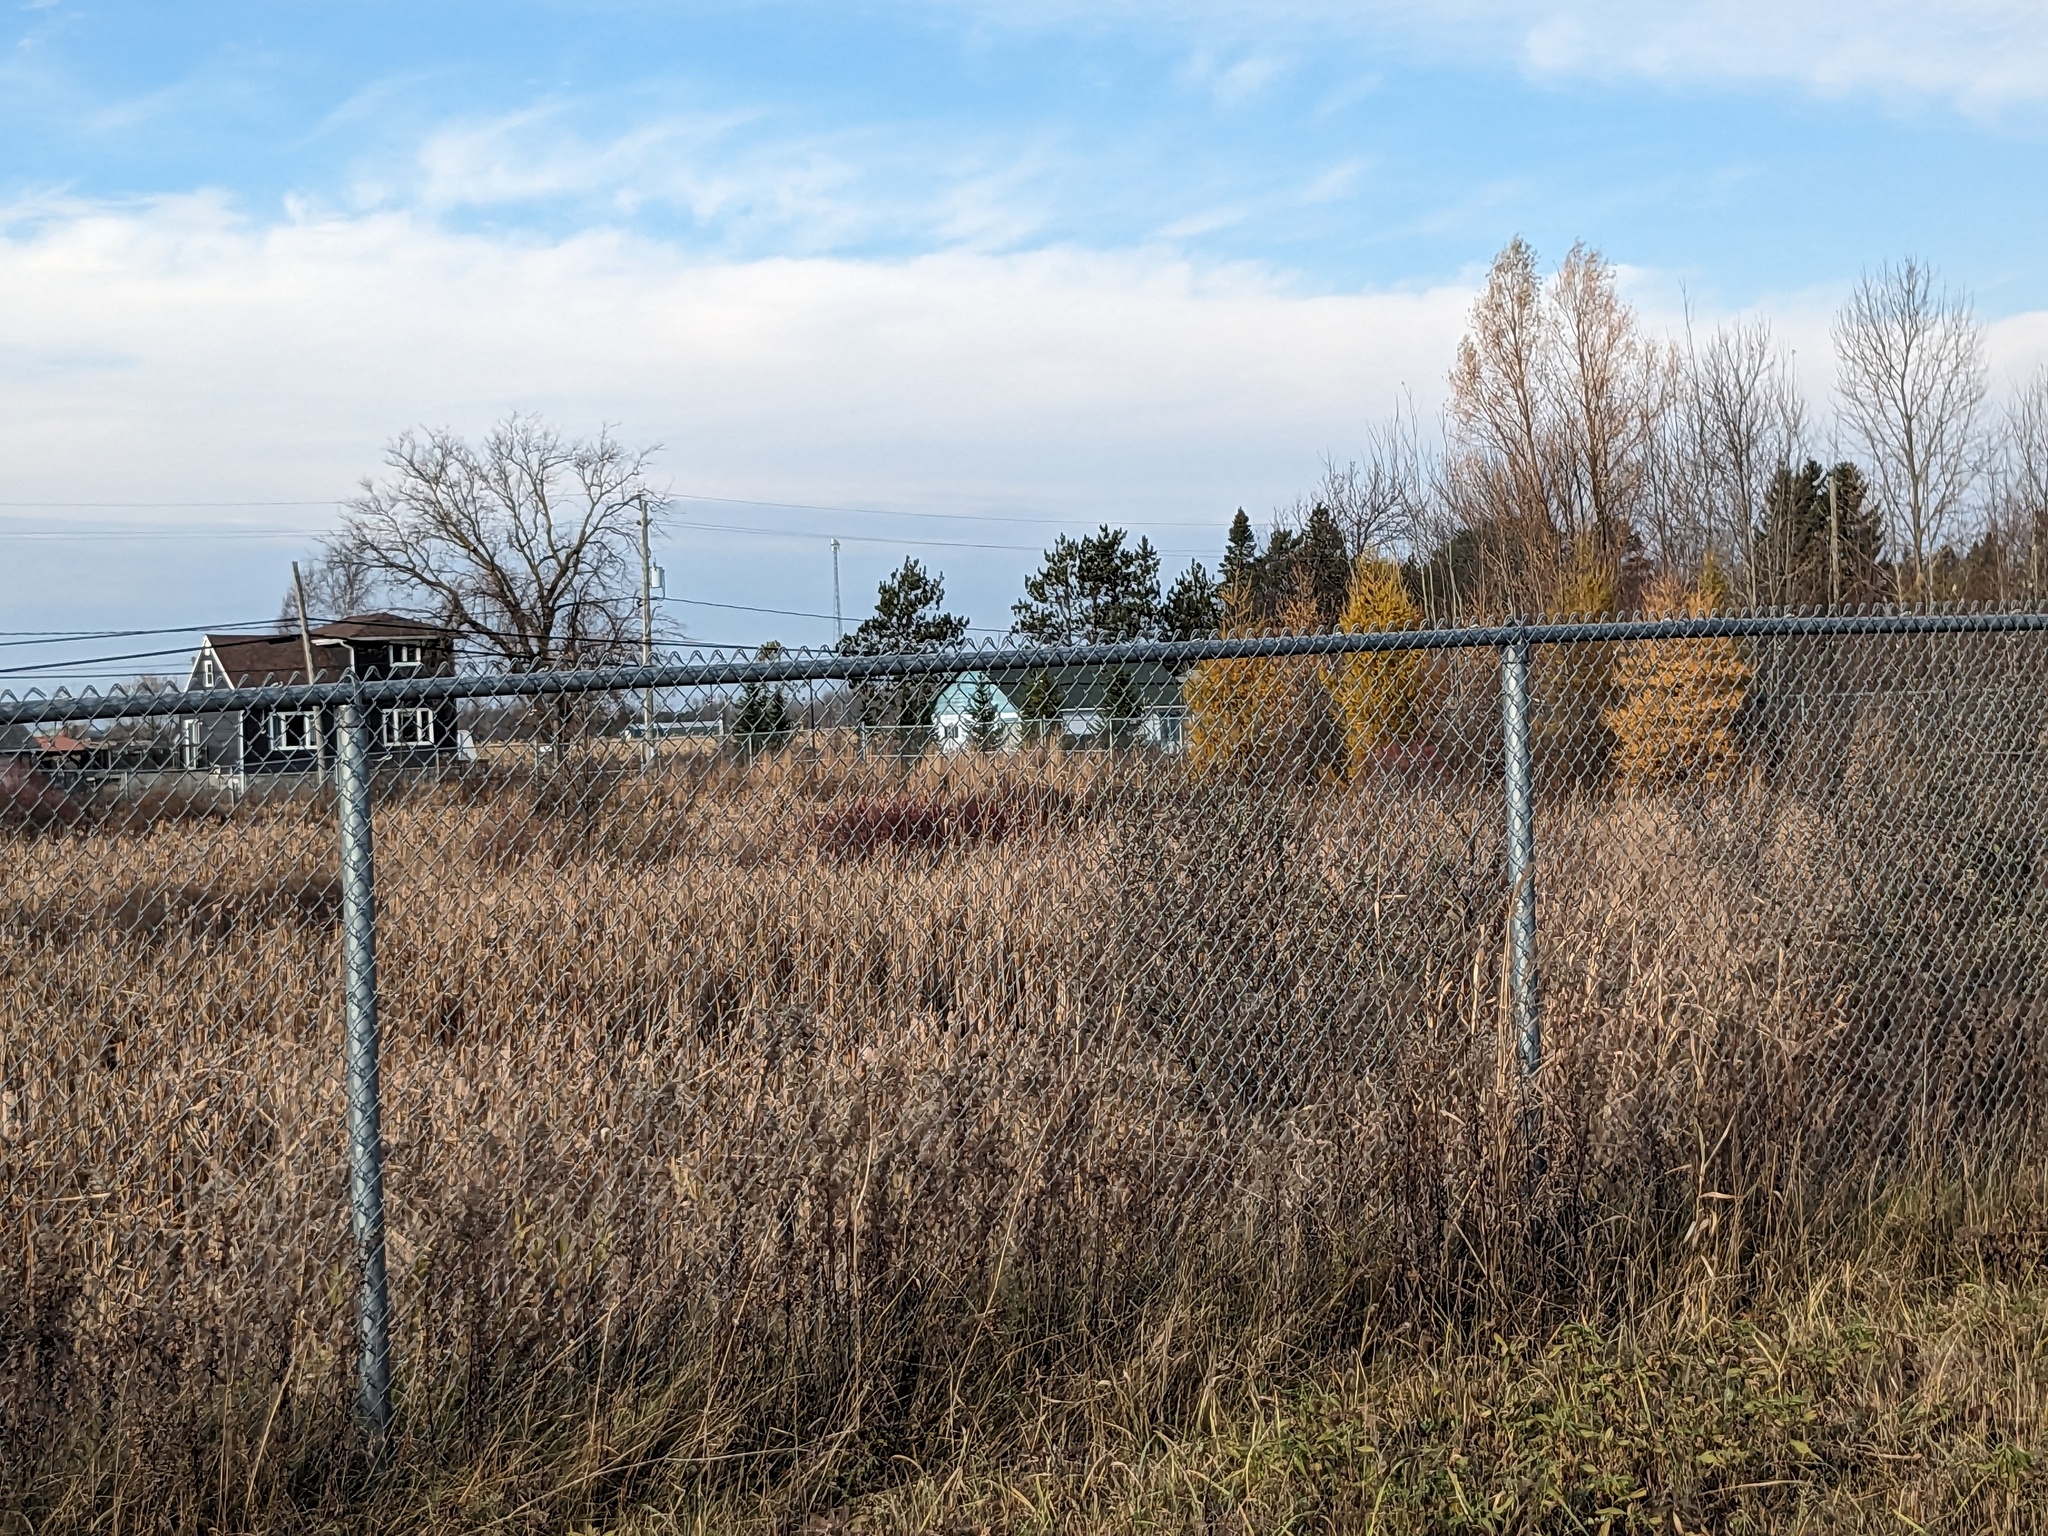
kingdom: Plantae
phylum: Tracheophyta
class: Liliopsida
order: Poales
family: Poaceae
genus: Phragmites
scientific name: Phragmites australis
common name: Common reed
